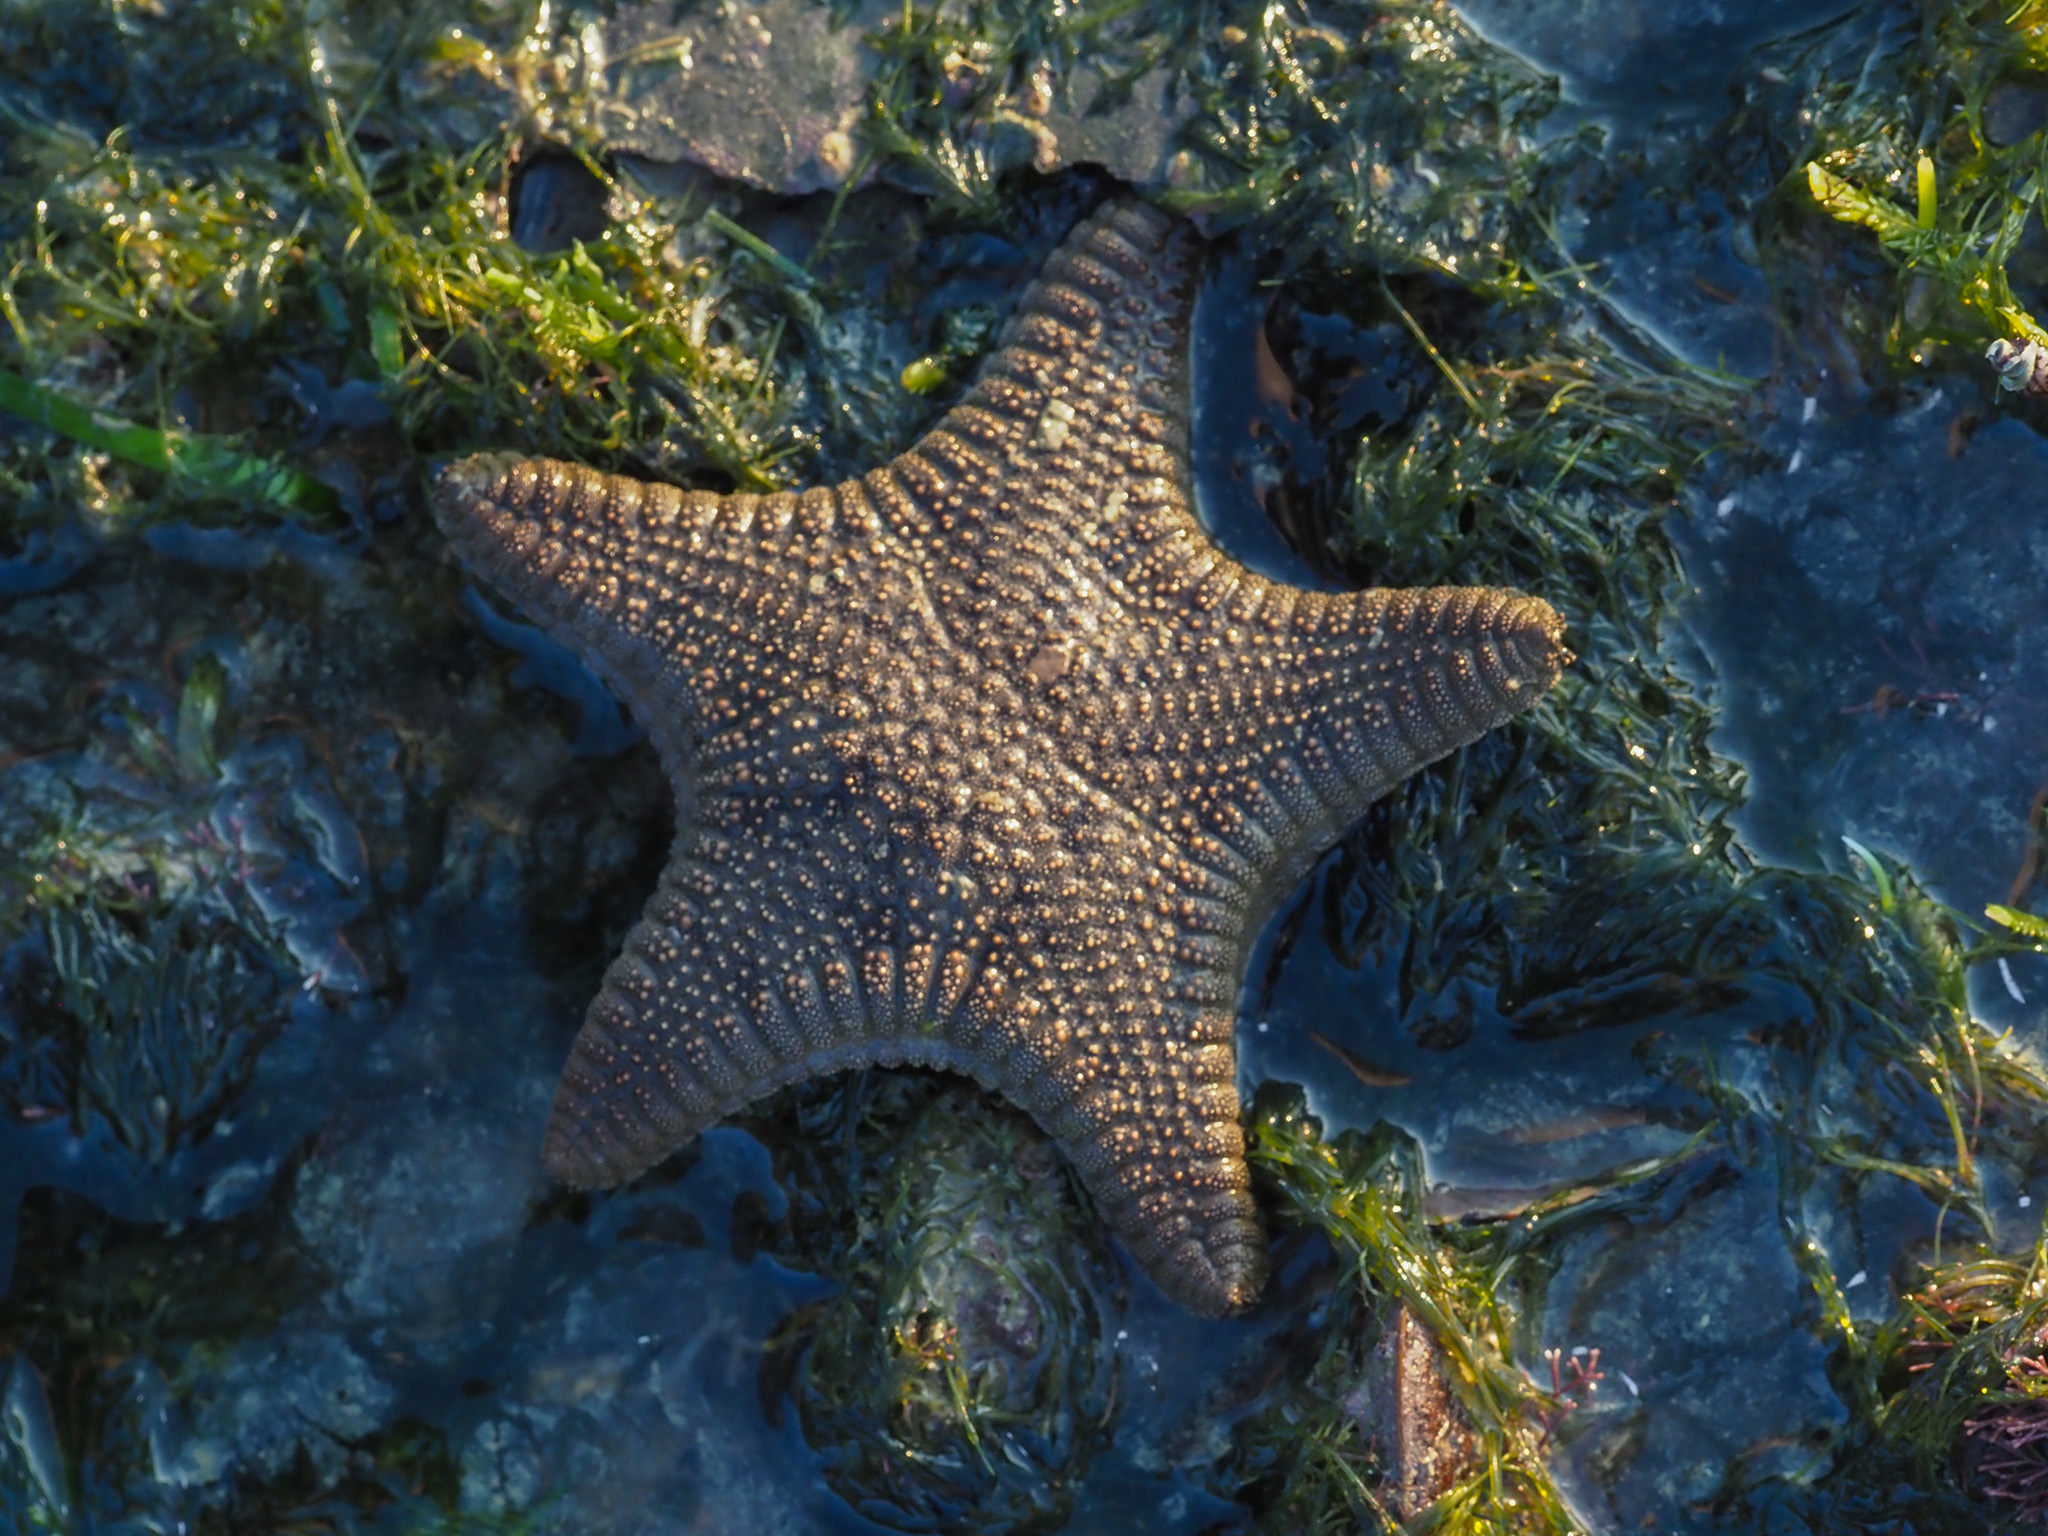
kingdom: Animalia
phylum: Echinodermata
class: Asteroidea
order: Valvatida
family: Goniasteridae
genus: Goniodiscaster
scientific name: Goniodiscaster scaber
